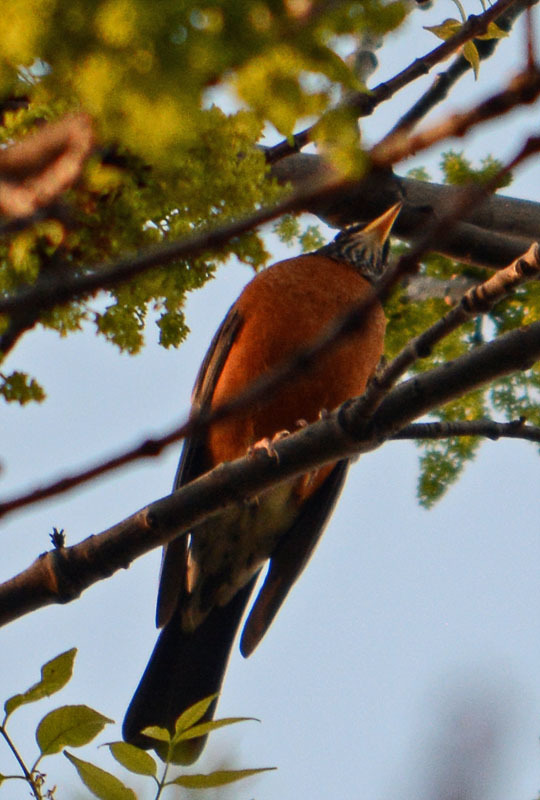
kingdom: Animalia
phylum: Chordata
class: Aves
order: Passeriformes
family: Turdidae
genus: Turdus
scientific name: Turdus migratorius
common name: American robin
